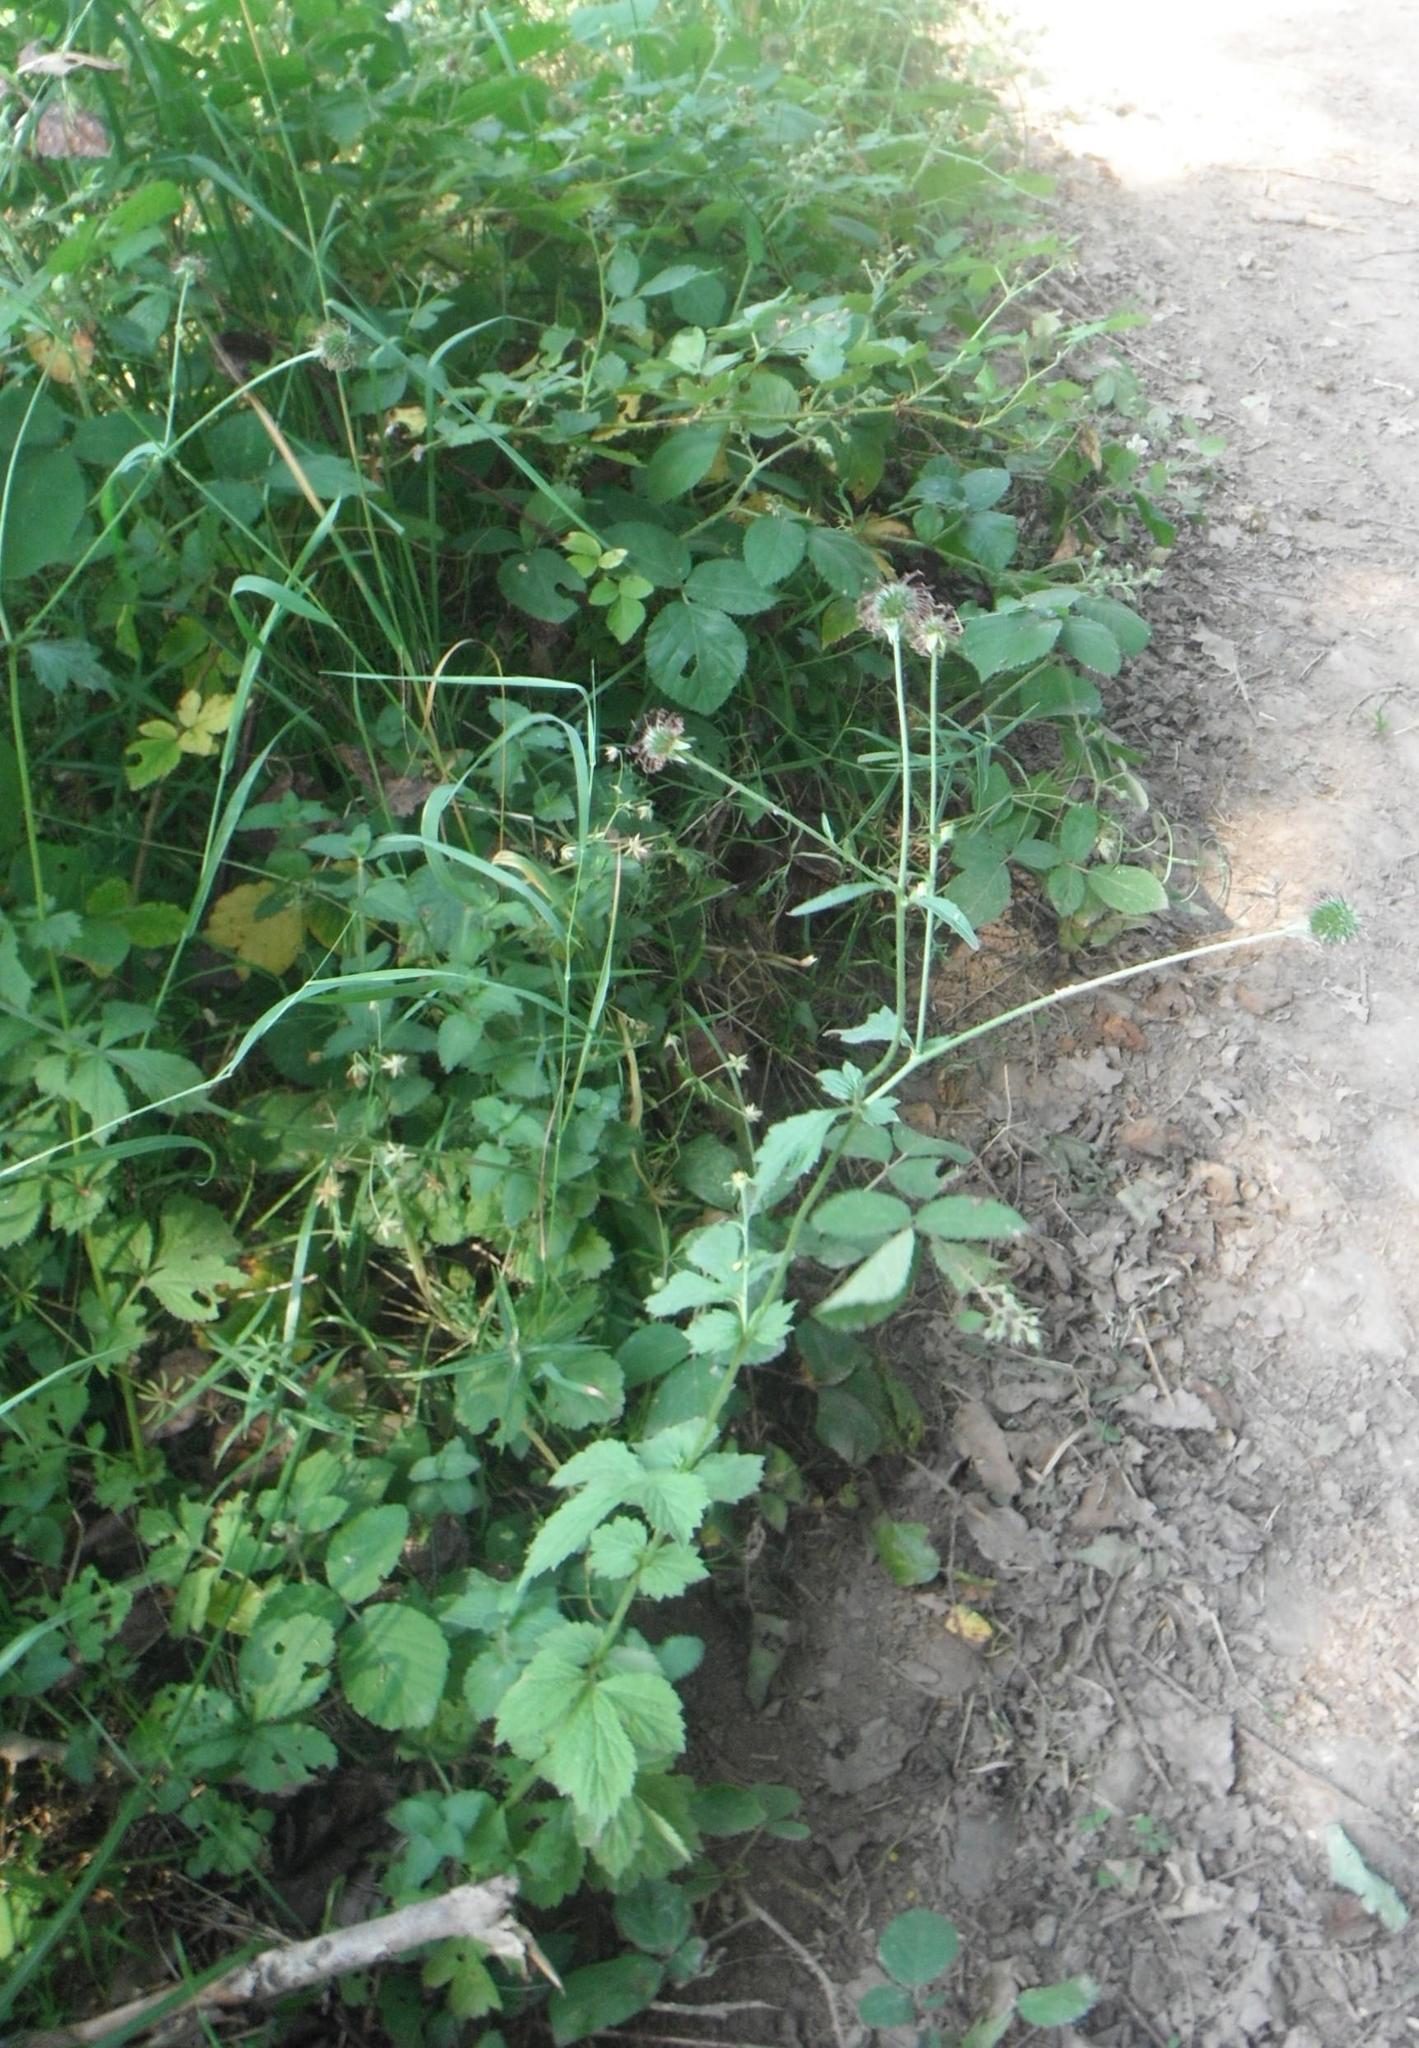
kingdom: Plantae
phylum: Tracheophyta
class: Magnoliopsida
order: Rosales
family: Rosaceae
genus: Geum
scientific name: Geum urbanum
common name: Wood avens
